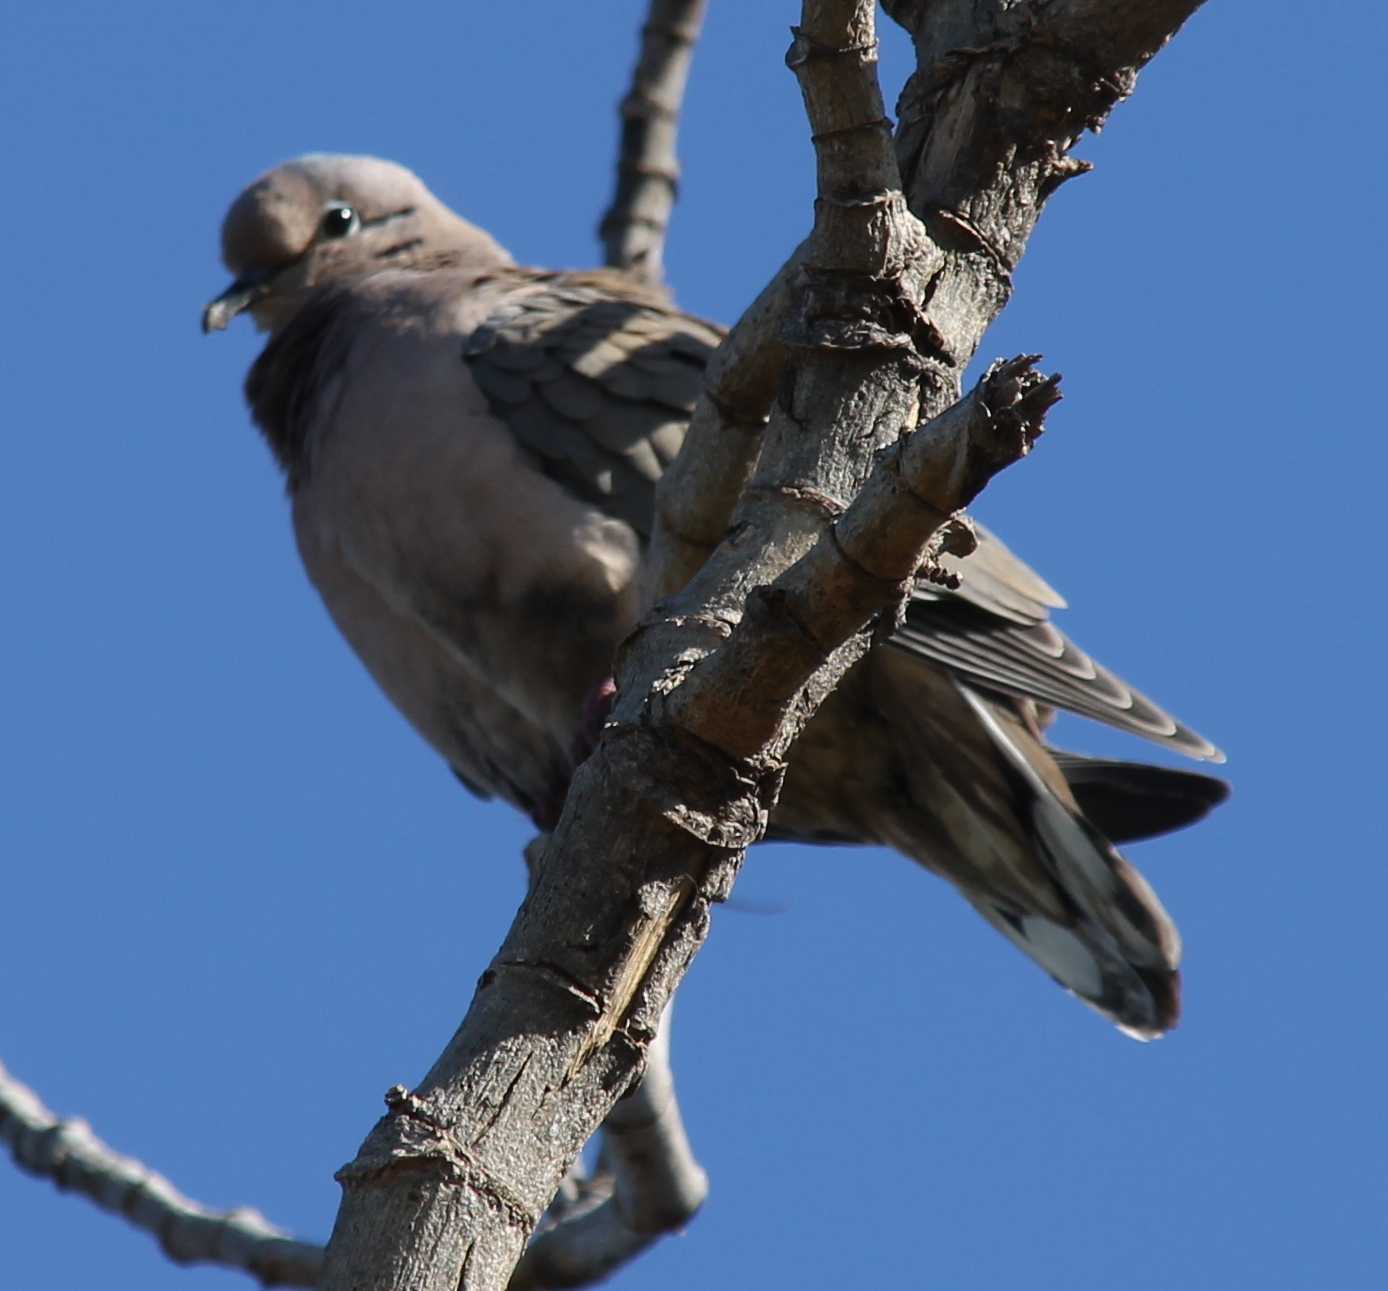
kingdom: Animalia
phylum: Chordata
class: Aves
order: Columbiformes
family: Columbidae
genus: Zenaida
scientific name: Zenaida auriculata
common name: Eared dove
